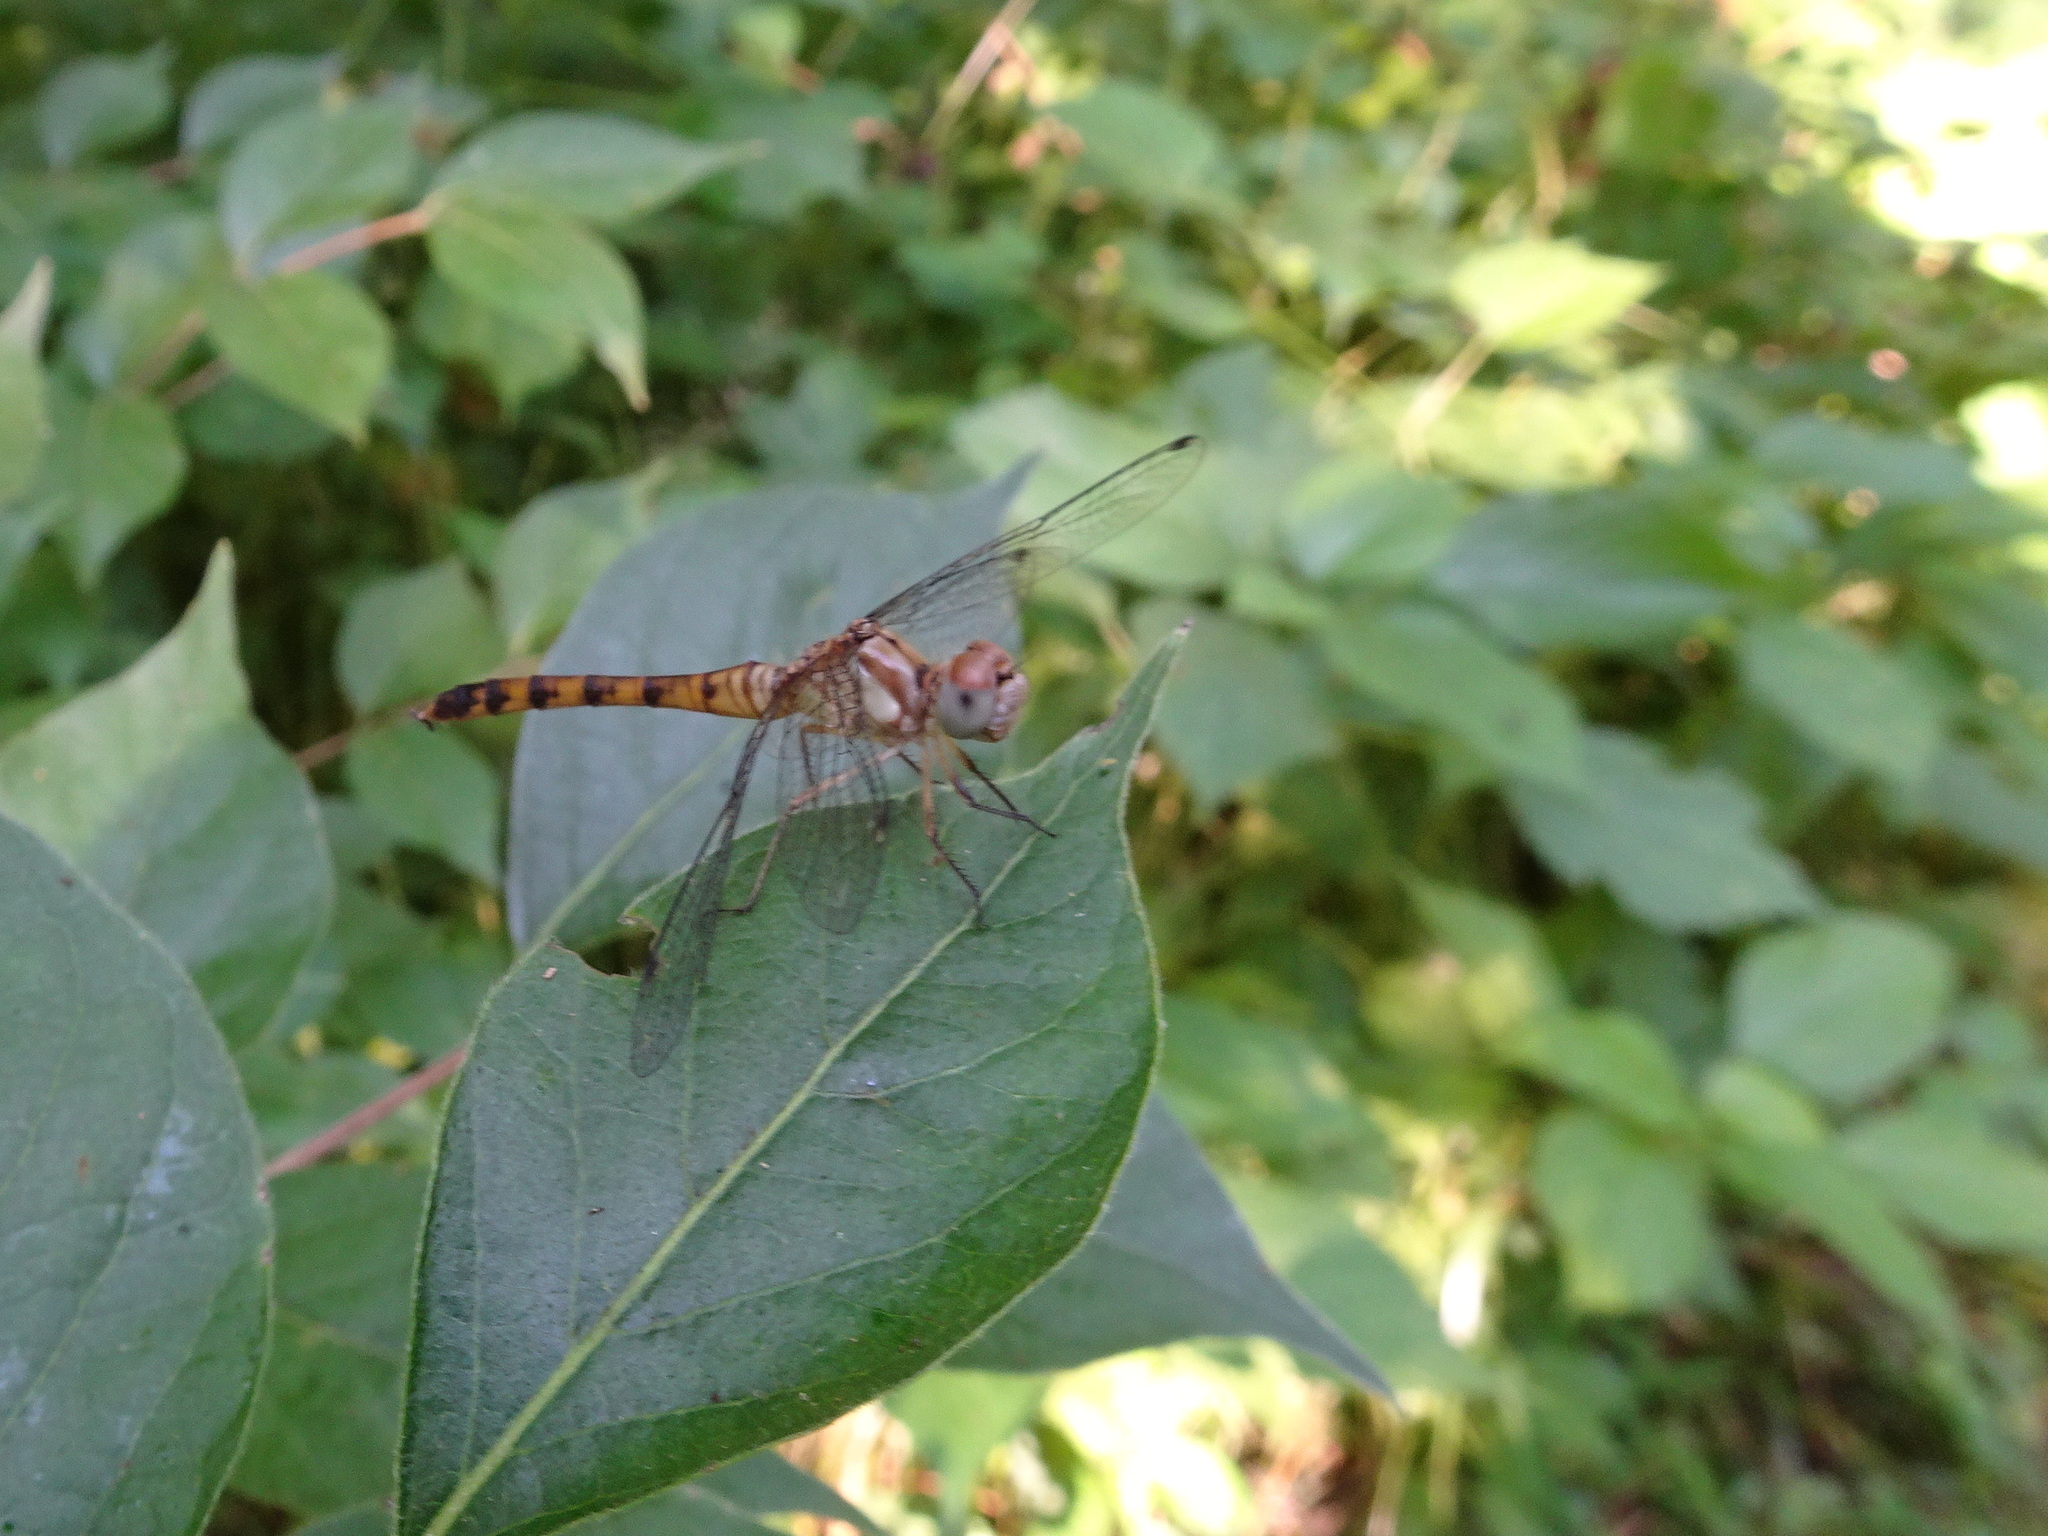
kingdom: Animalia
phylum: Arthropoda
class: Insecta
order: Odonata
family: Libellulidae
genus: Sympetrum
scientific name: Sympetrum ambiguum
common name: Blue-faced meadowhawk
